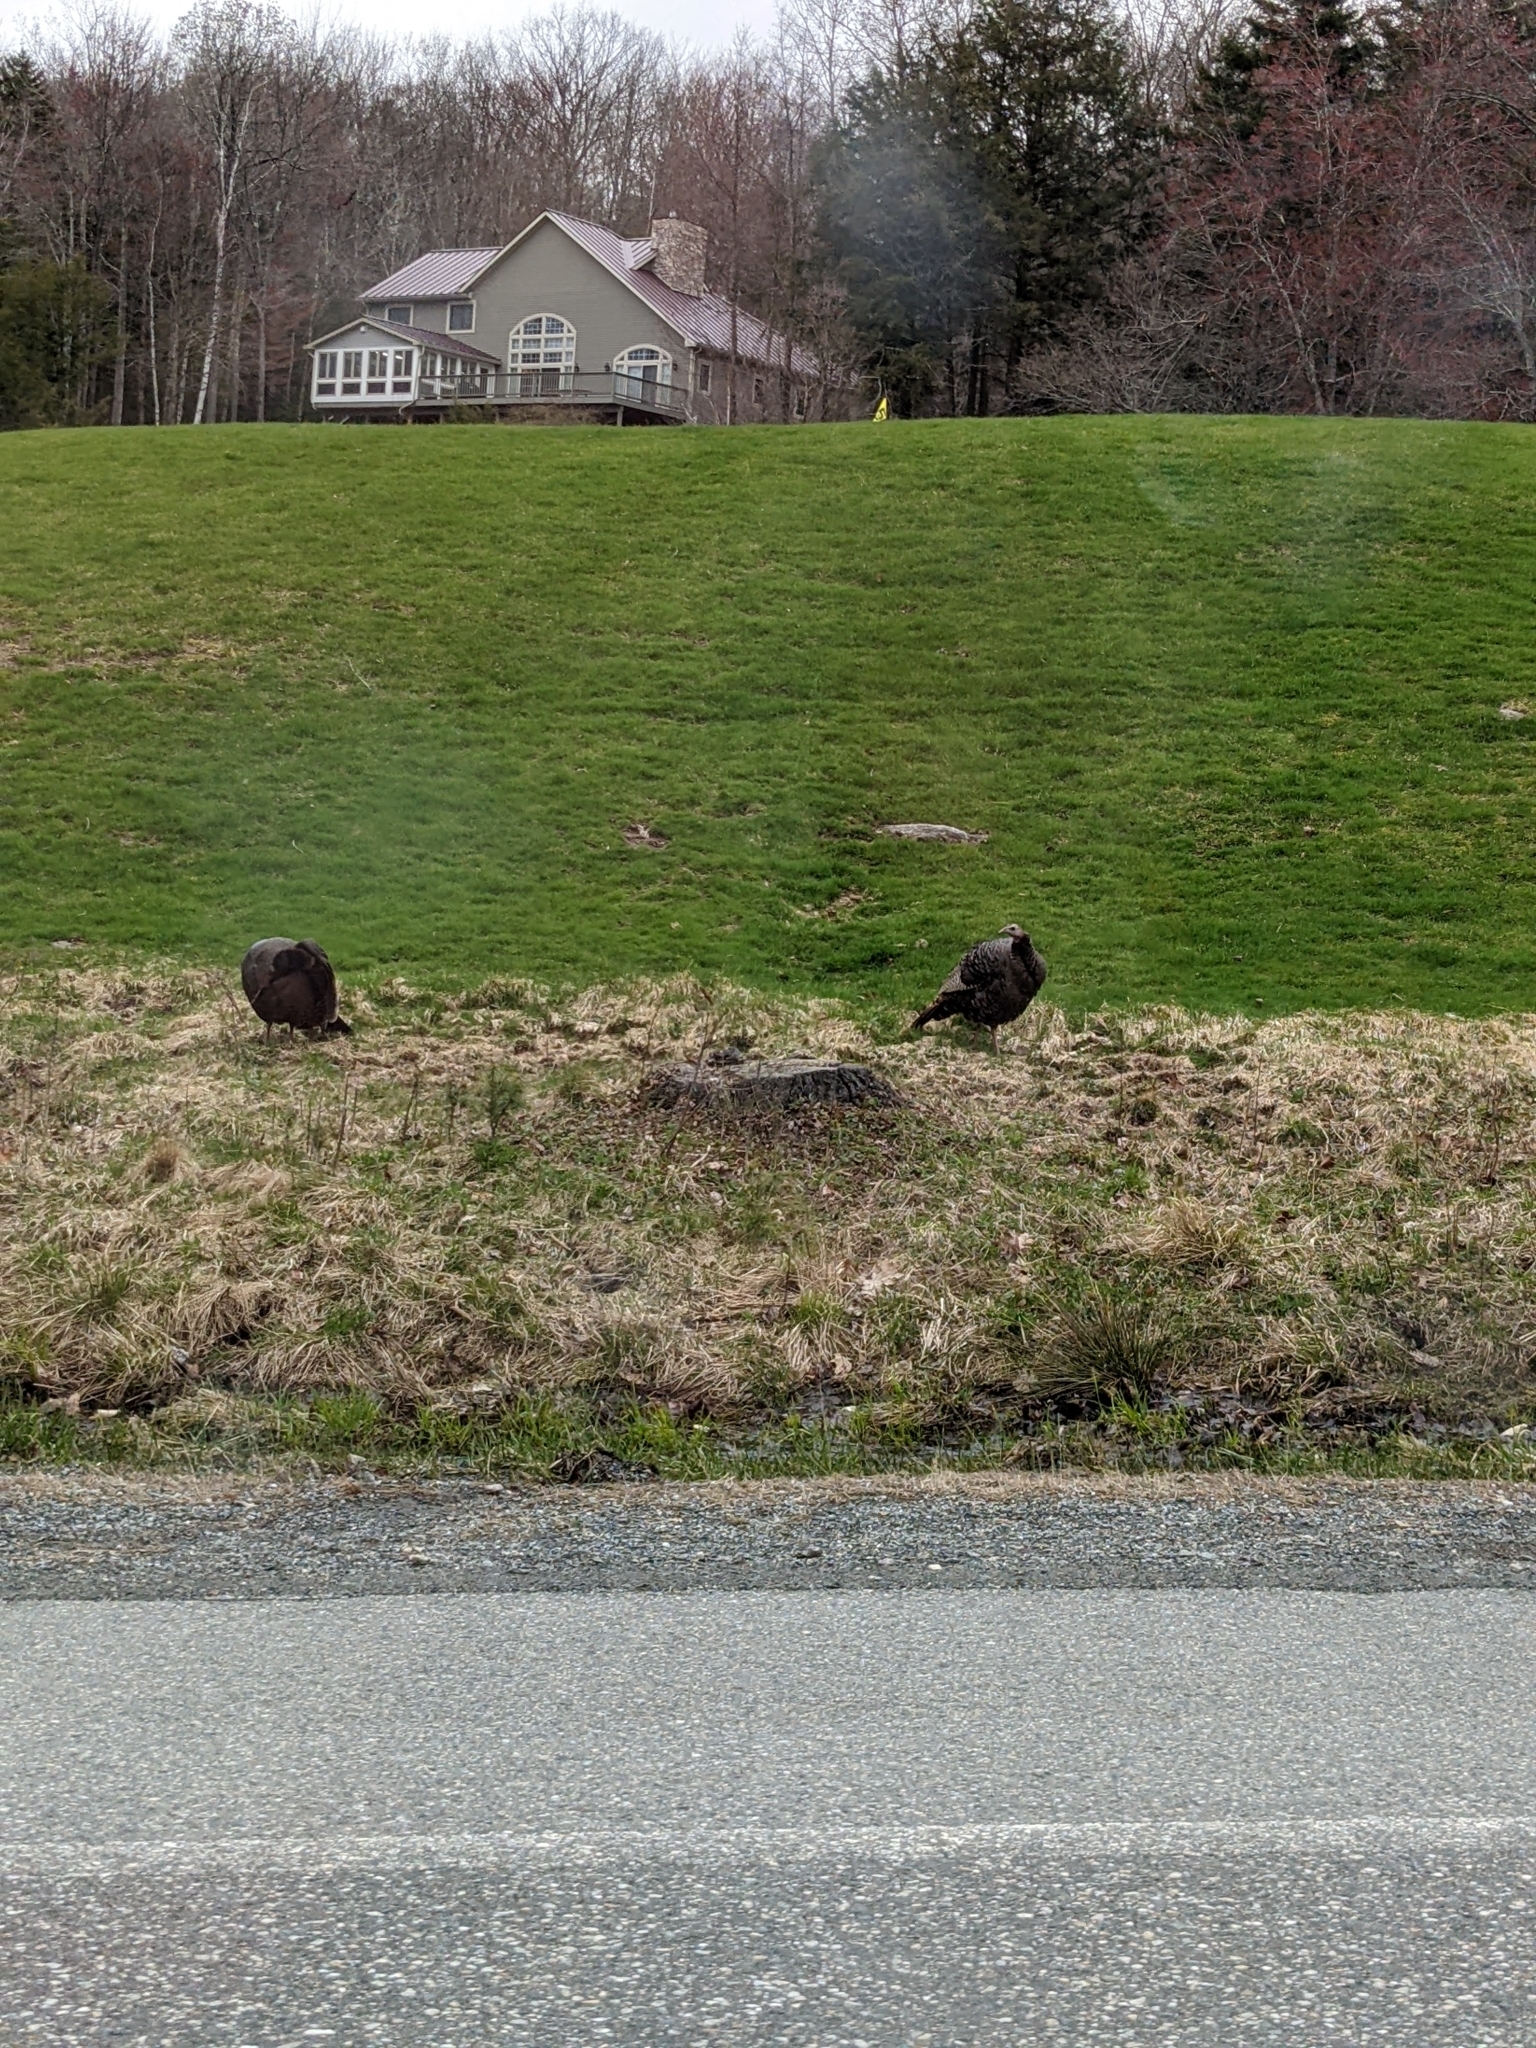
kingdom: Animalia
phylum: Chordata
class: Aves
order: Galliformes
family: Phasianidae
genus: Meleagris
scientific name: Meleagris gallopavo
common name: Wild turkey
